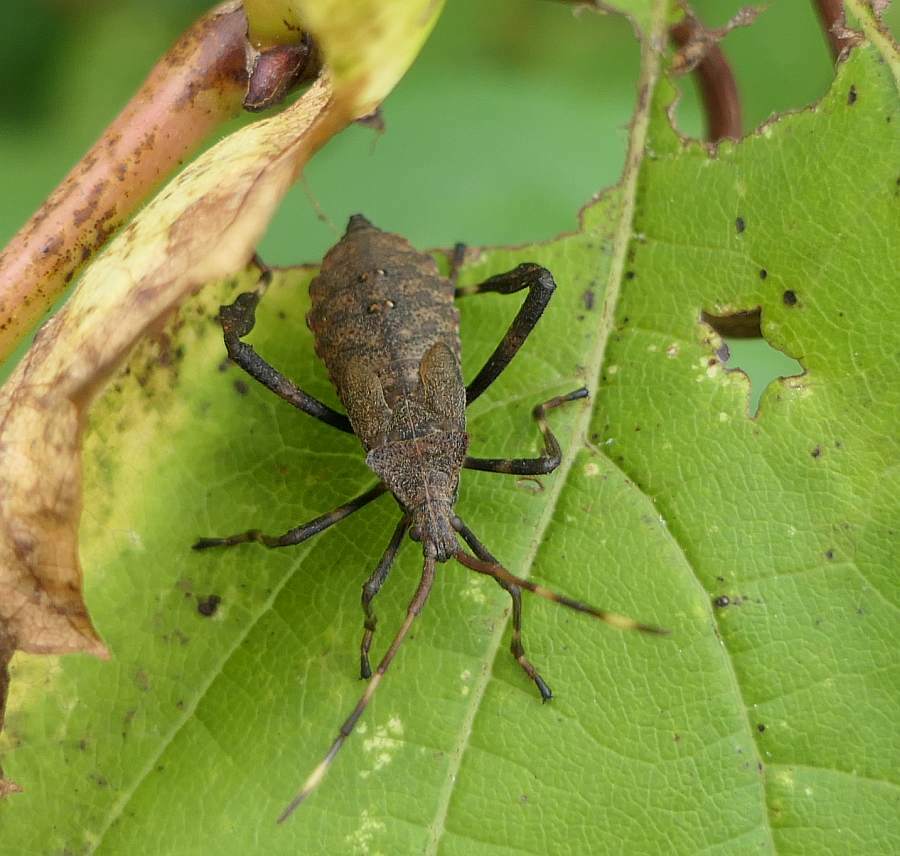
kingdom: Animalia
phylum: Arthropoda
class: Insecta
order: Hemiptera
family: Coreidae
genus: Acanthocephala
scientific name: Acanthocephala terminalis
